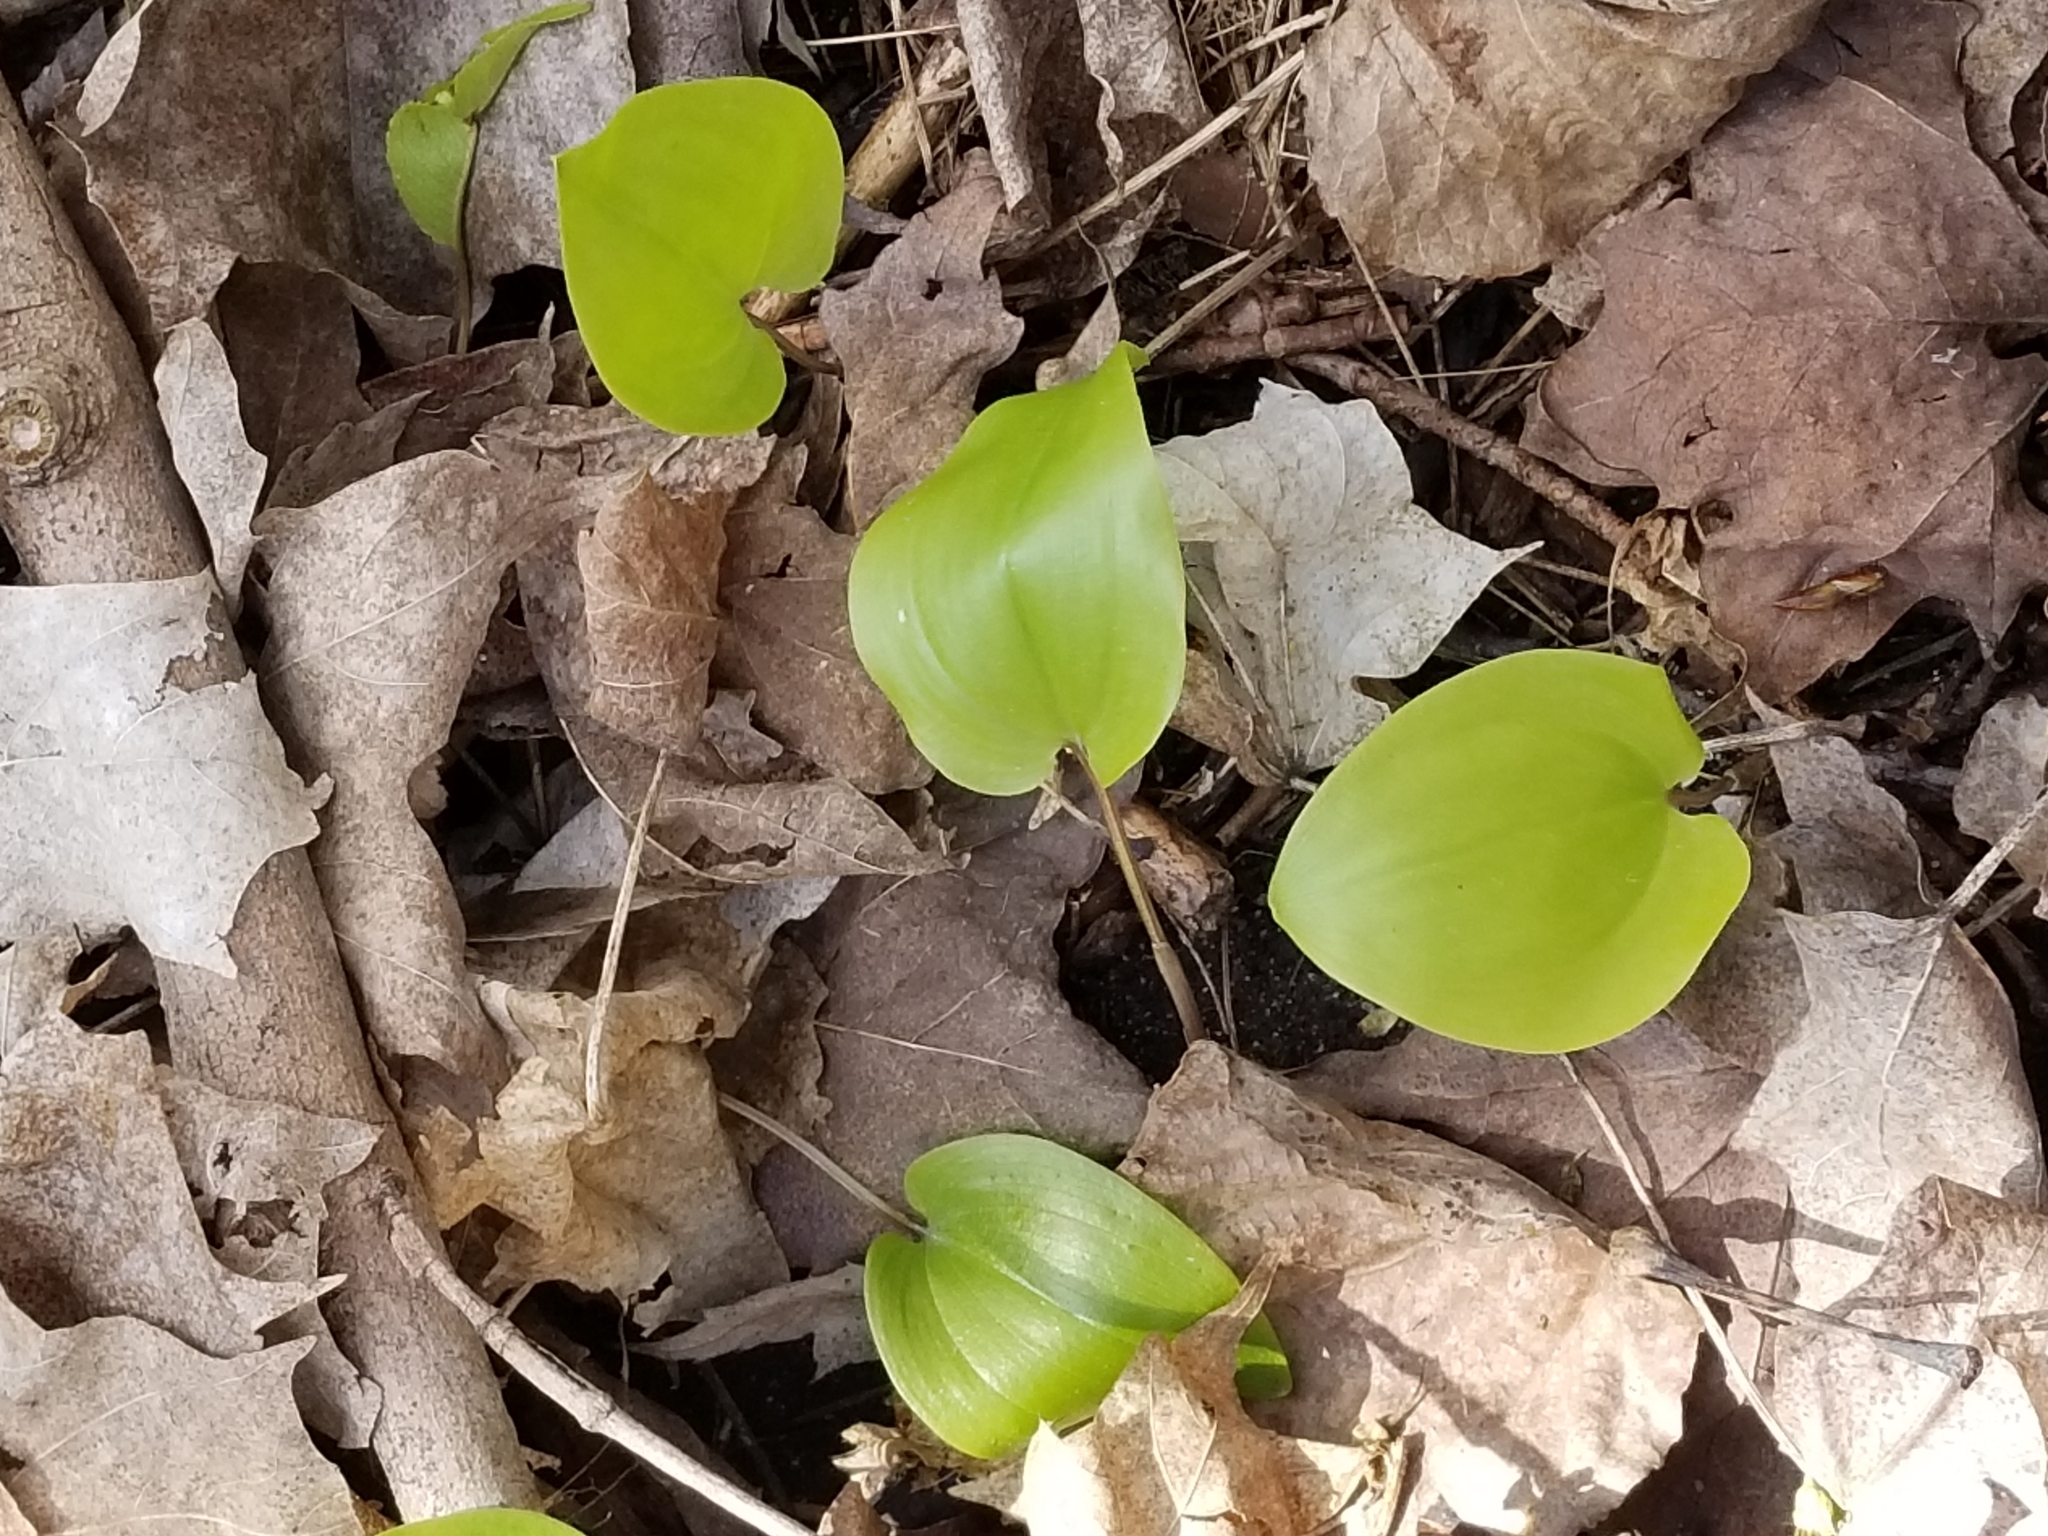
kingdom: Plantae
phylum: Tracheophyta
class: Liliopsida
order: Asparagales
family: Asparagaceae
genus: Maianthemum
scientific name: Maianthemum canadense
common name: False lily-of-the-valley
